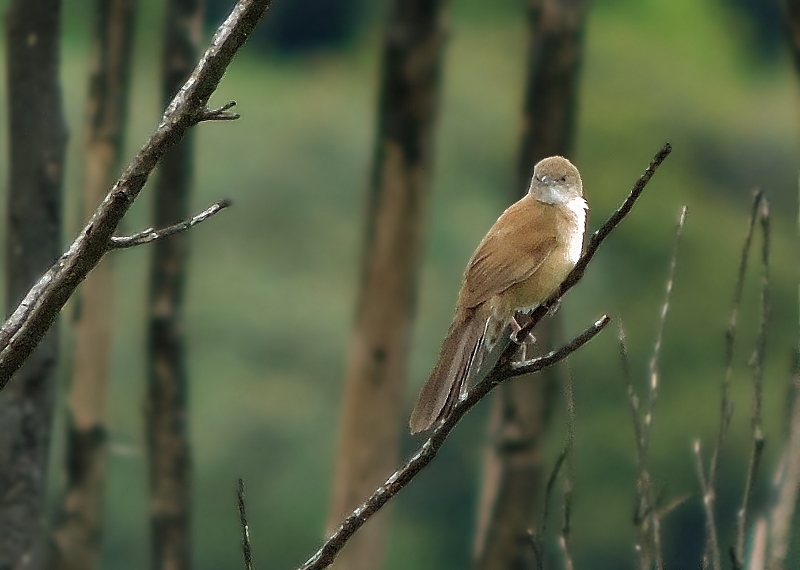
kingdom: Animalia
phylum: Chordata
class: Aves
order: Passeriformes
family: Locustellidae
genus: Schoenicola
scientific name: Schoenicola brevirostris
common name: Fan-tailed grassbird
